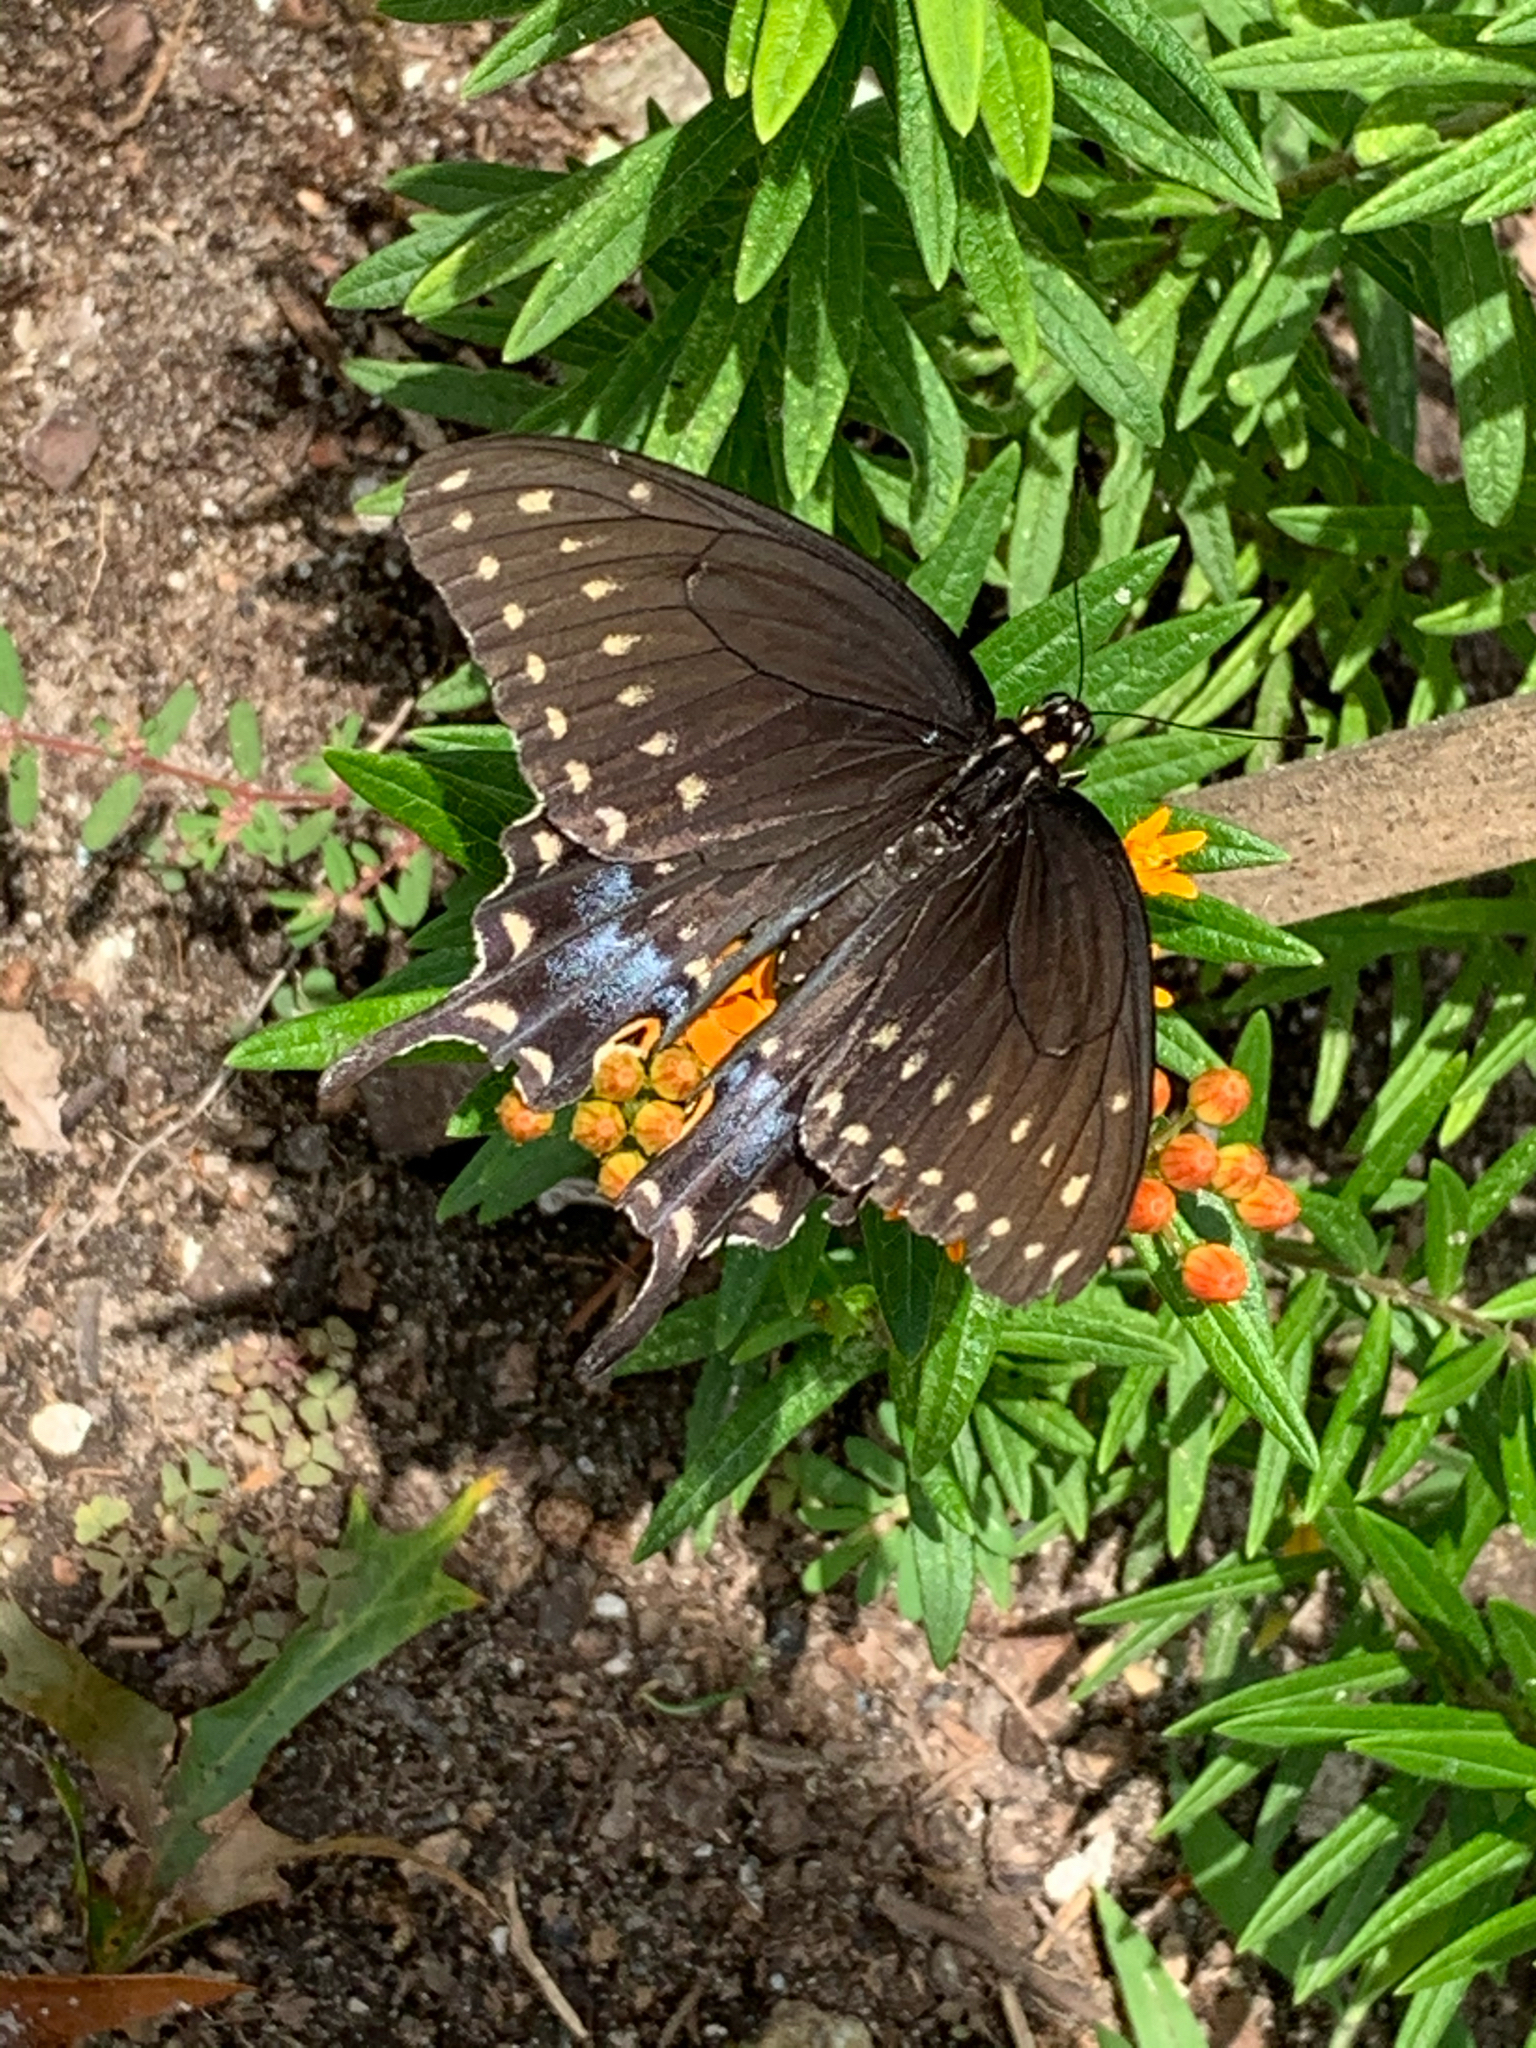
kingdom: Animalia
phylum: Arthropoda
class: Insecta
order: Lepidoptera
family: Papilionidae
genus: Papilio
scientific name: Papilio polyxenes
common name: Black swallowtail
